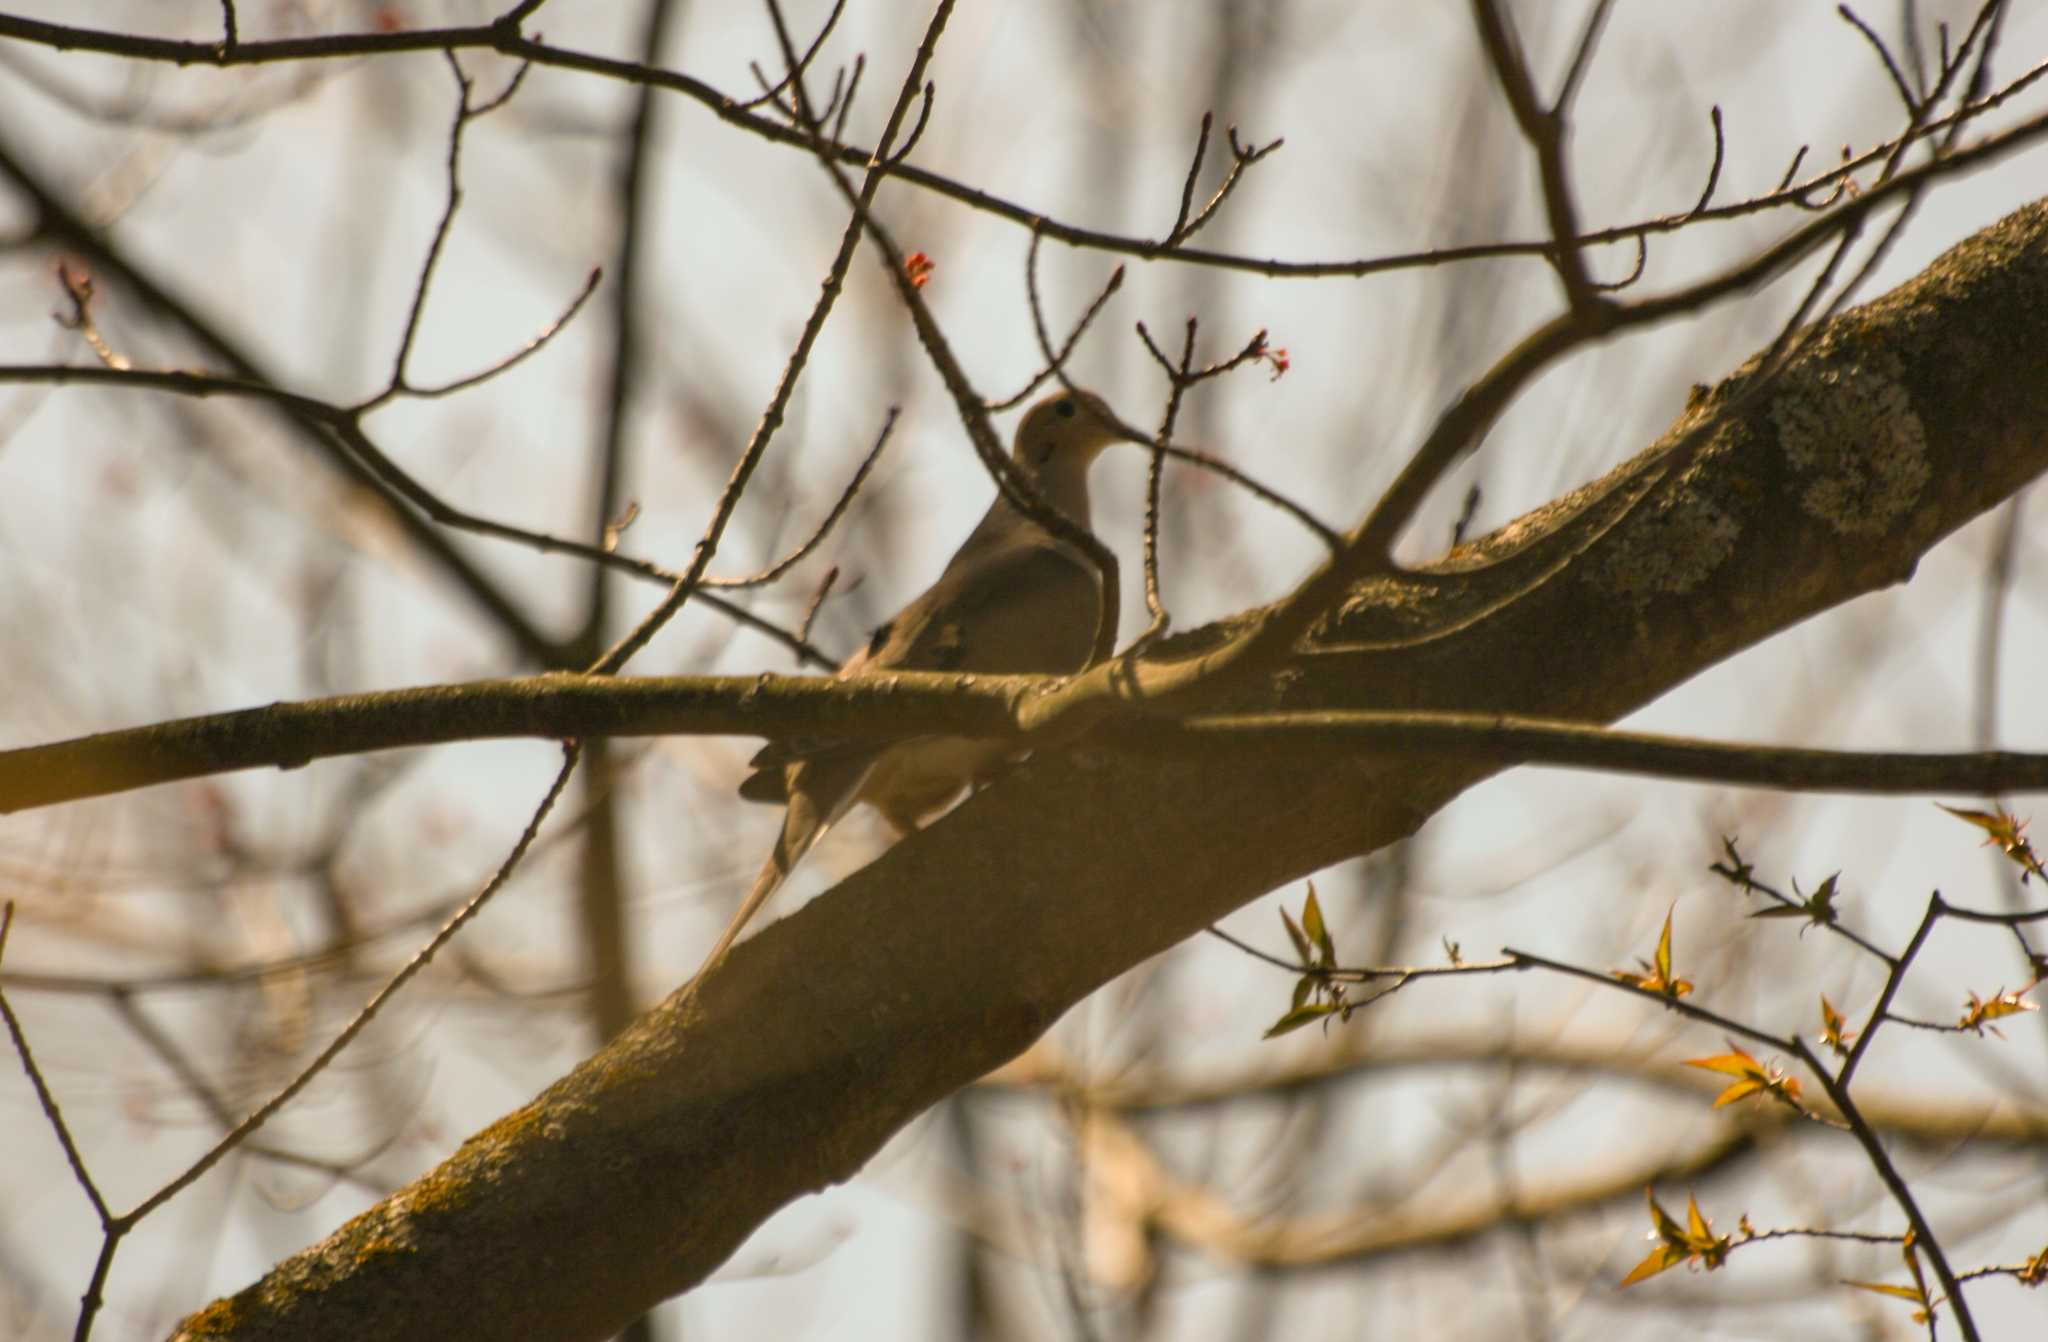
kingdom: Animalia
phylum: Chordata
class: Aves
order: Columbiformes
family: Columbidae
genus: Zenaida
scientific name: Zenaida macroura
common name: Mourning dove
